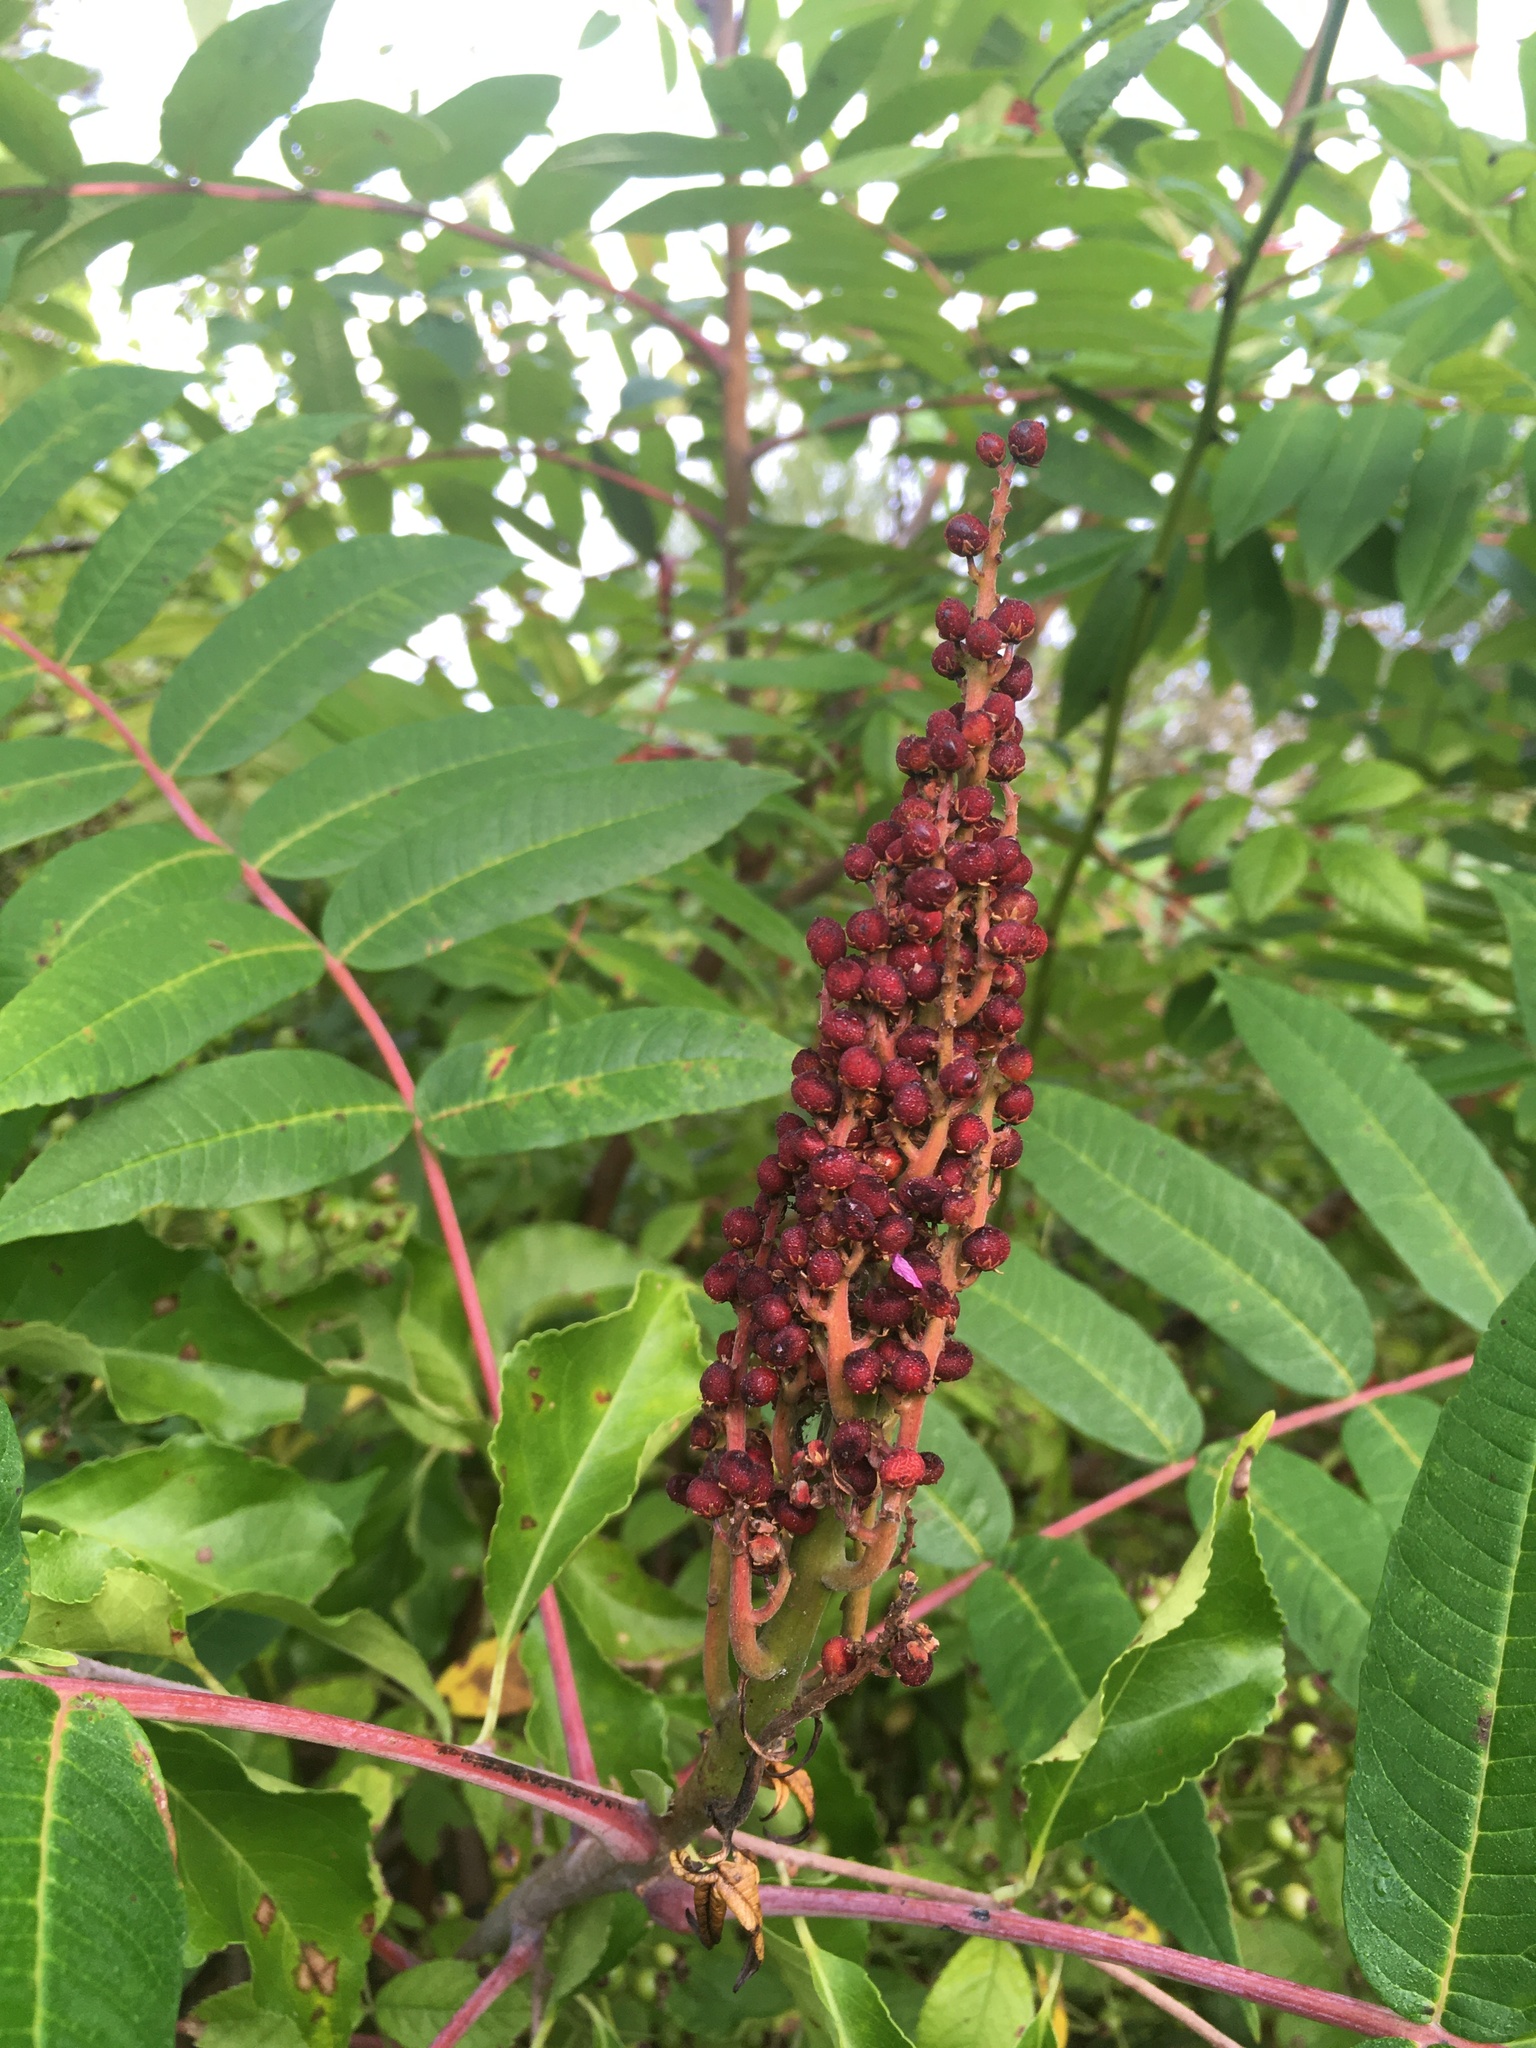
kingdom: Plantae
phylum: Tracheophyta
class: Magnoliopsida
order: Sapindales
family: Anacardiaceae
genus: Rhus
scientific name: Rhus glabra
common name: Scarlet sumac
